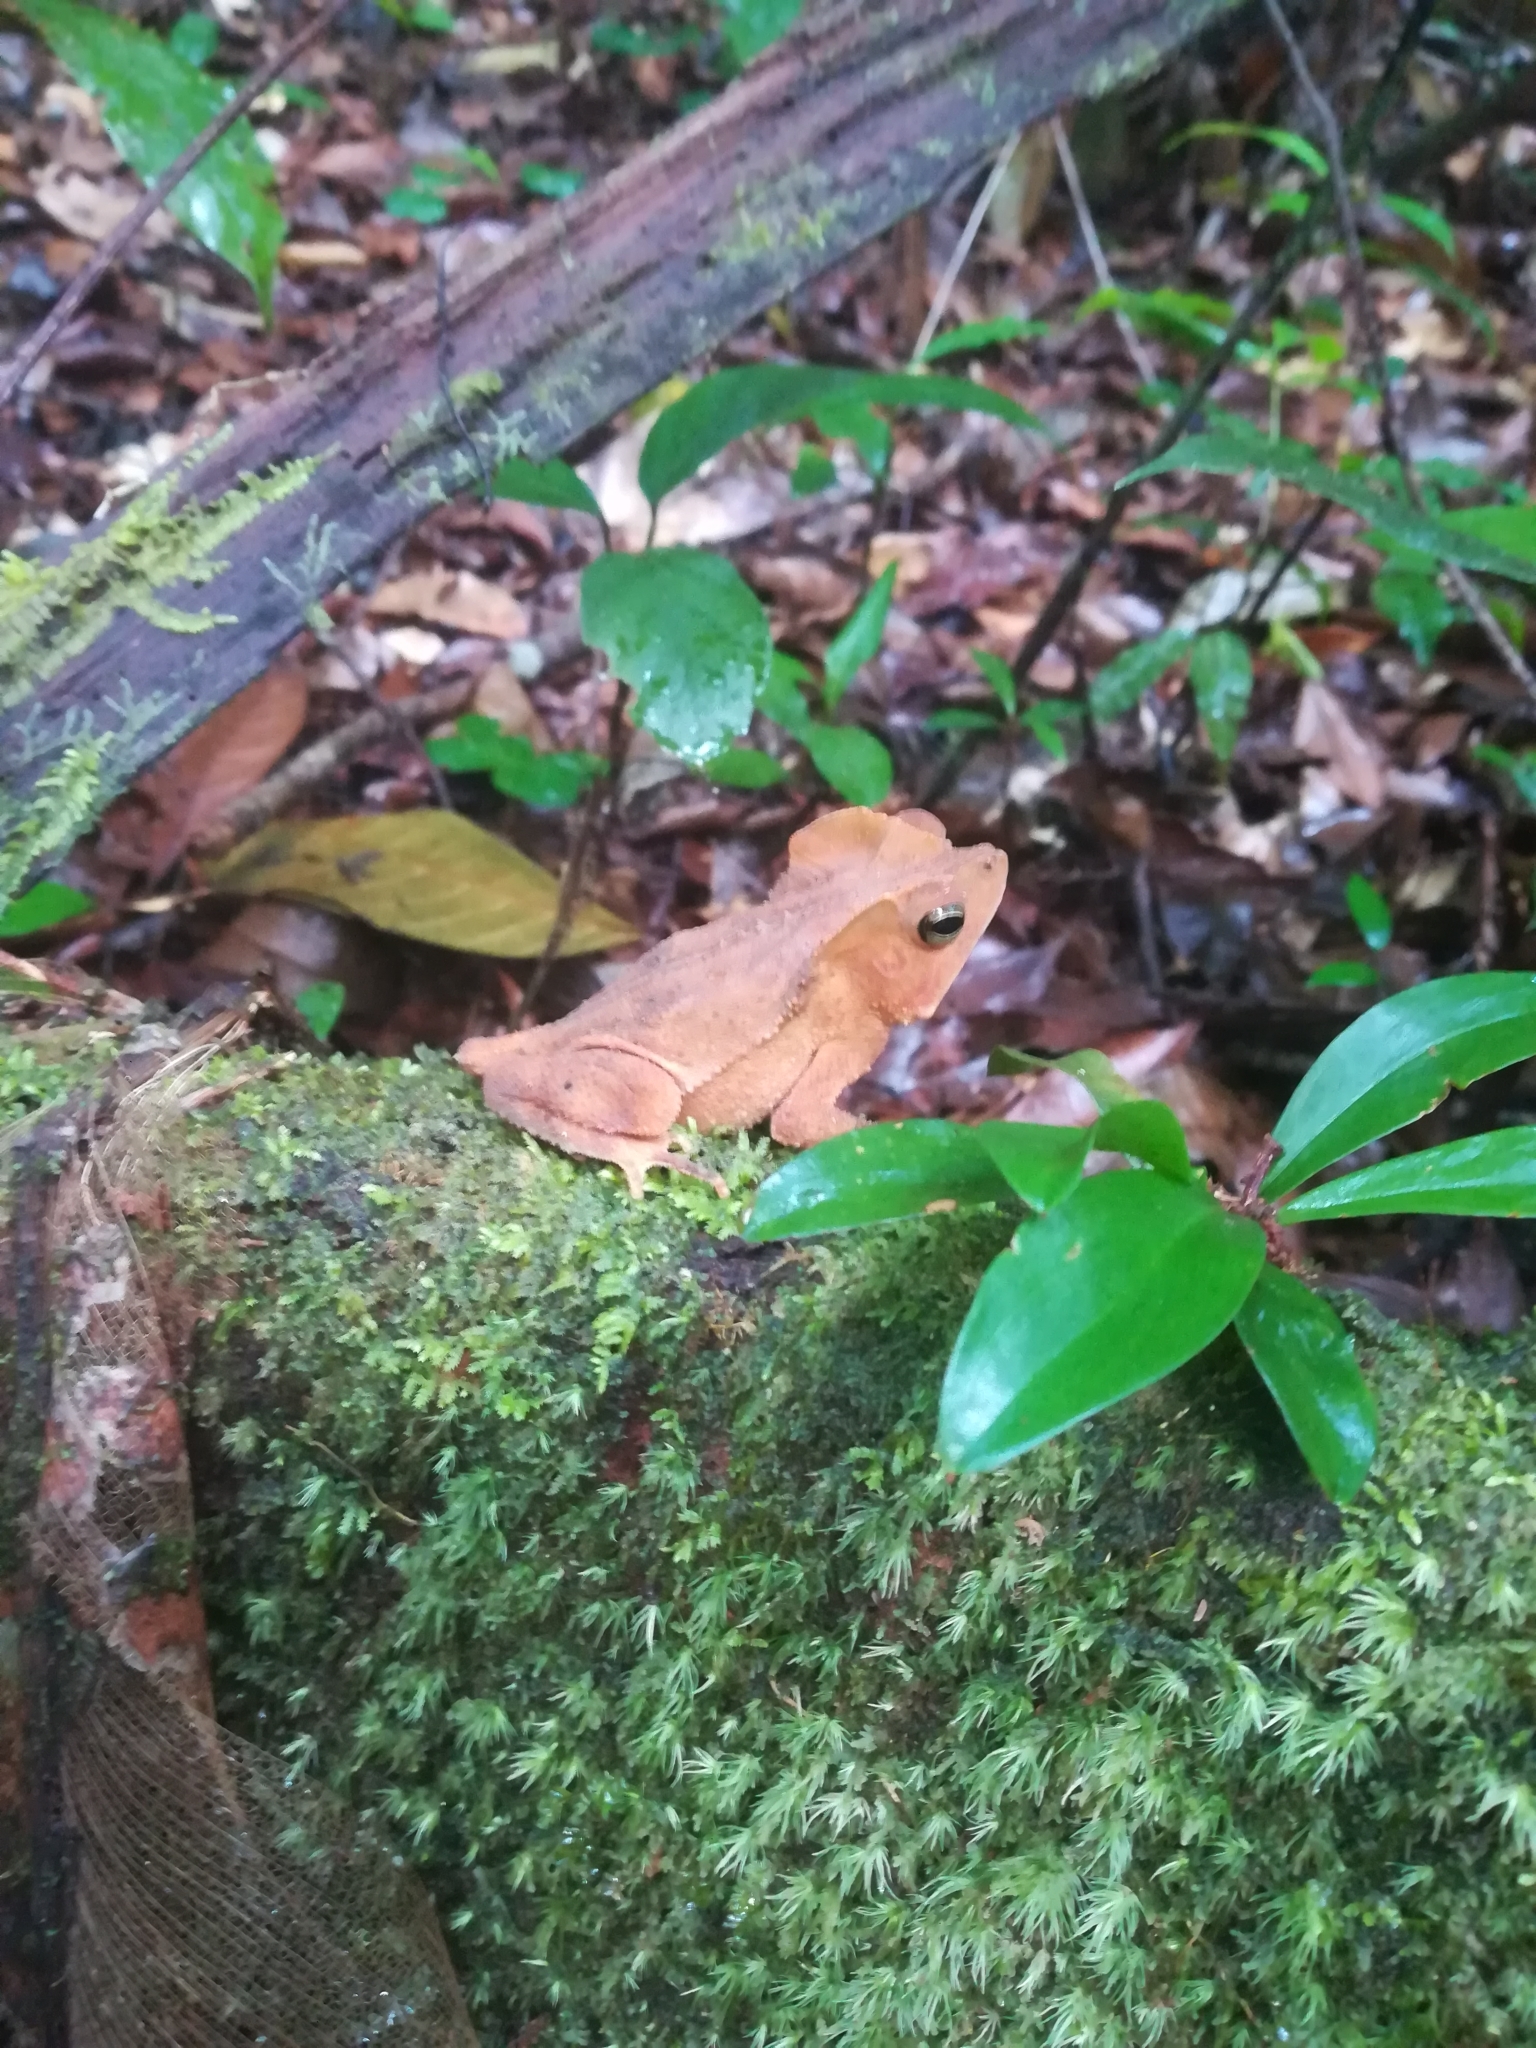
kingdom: Animalia
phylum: Chordata
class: Amphibia
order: Anura
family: Bufonidae
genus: Rhinella
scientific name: Rhinella margaritifera
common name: Mitred toad
